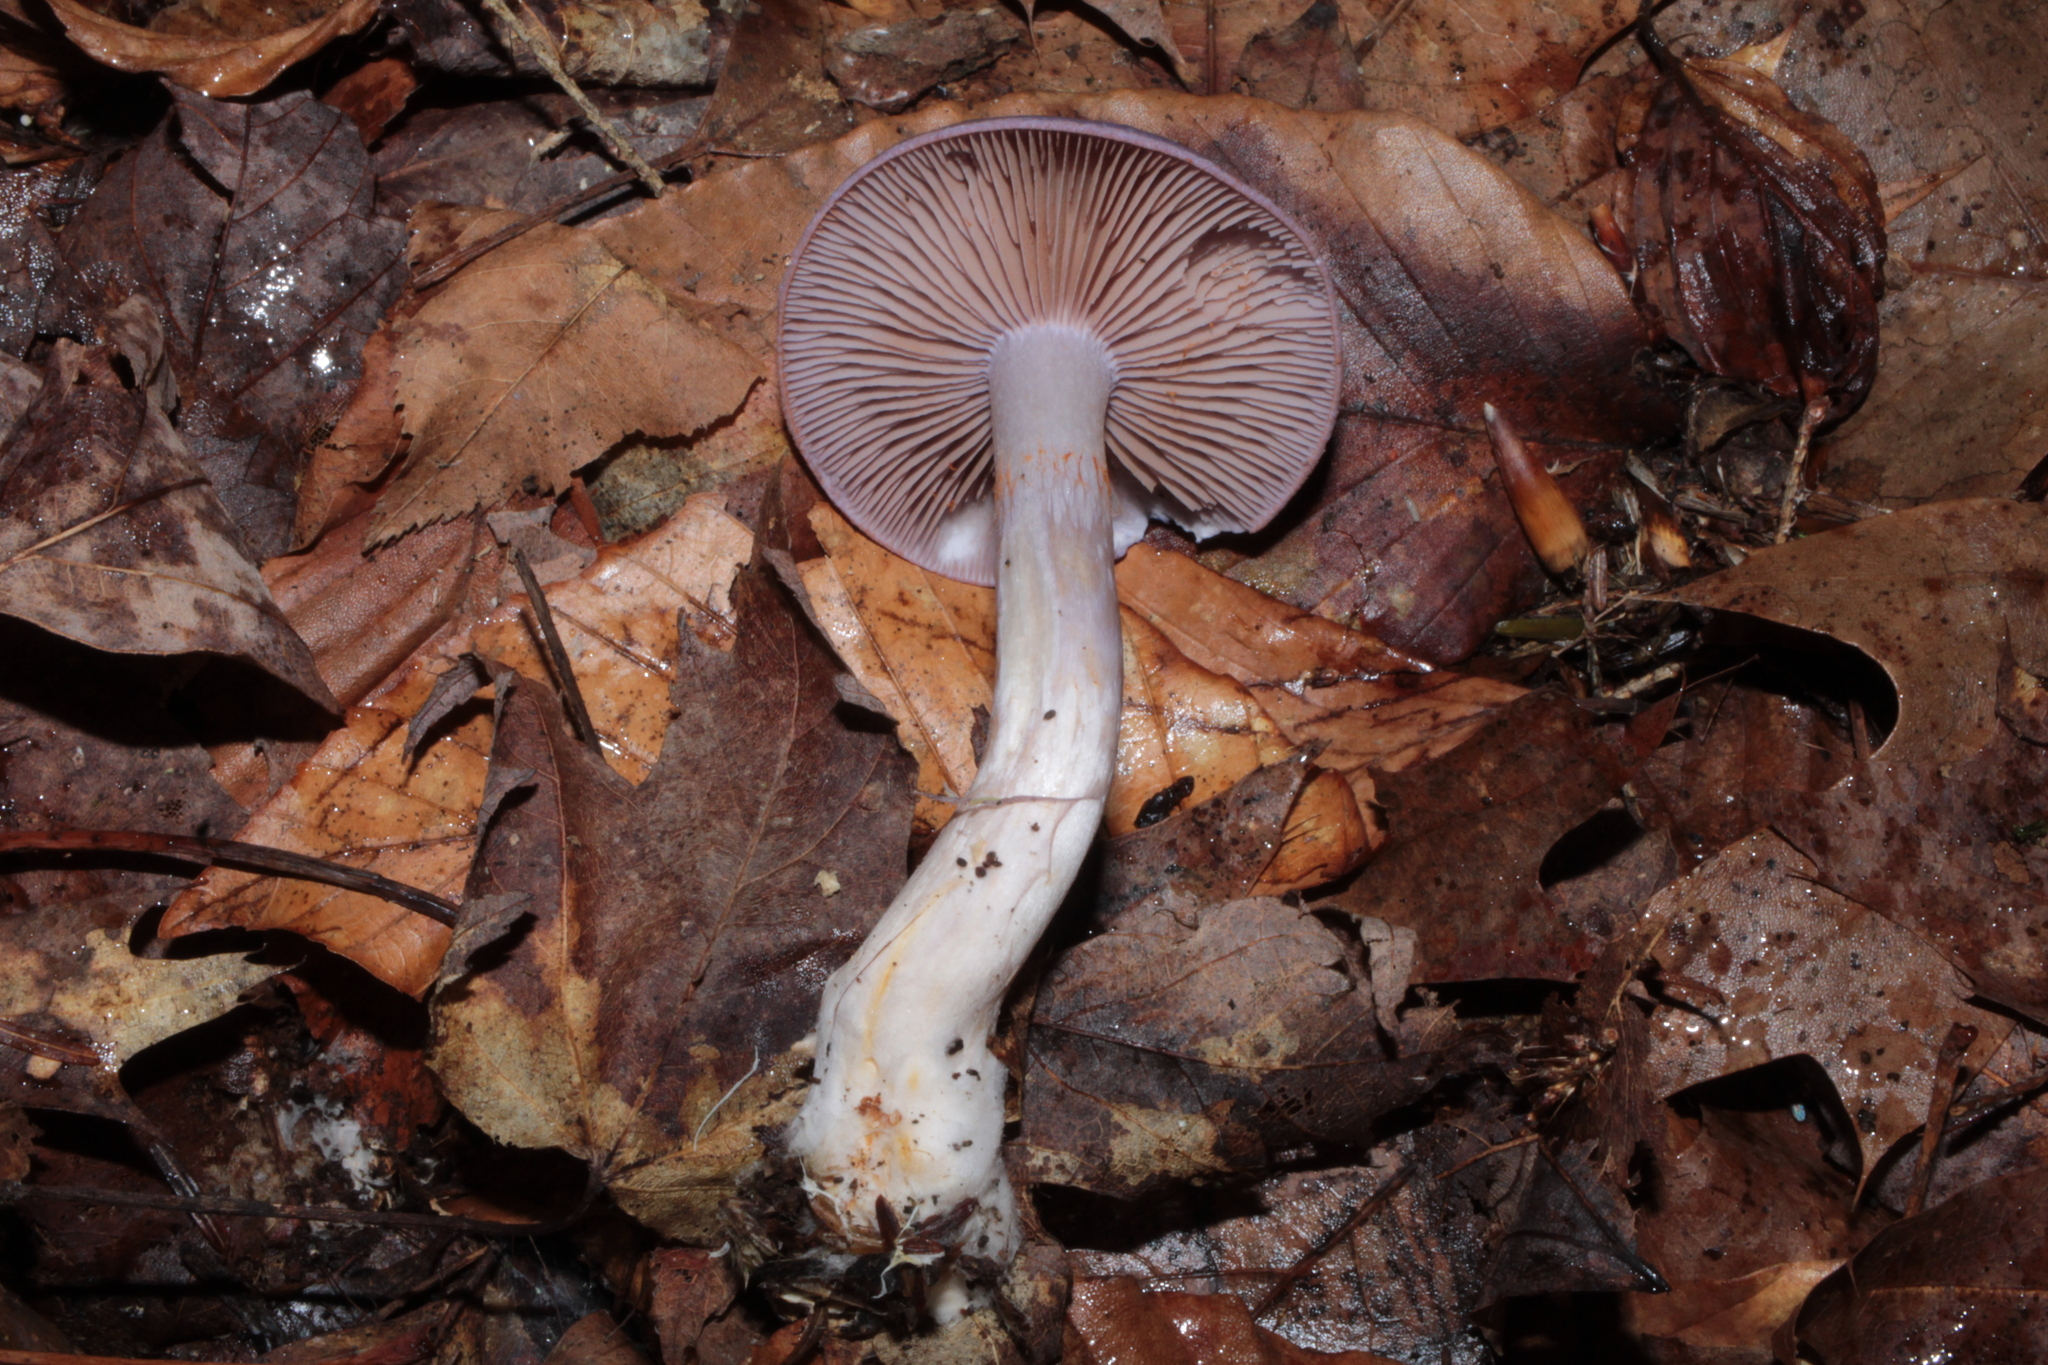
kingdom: Fungi
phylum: Basidiomycota
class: Agaricomycetes
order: Agaricales
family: Cortinariaceae
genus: Cortinarius
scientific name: Cortinarius iodeoides
